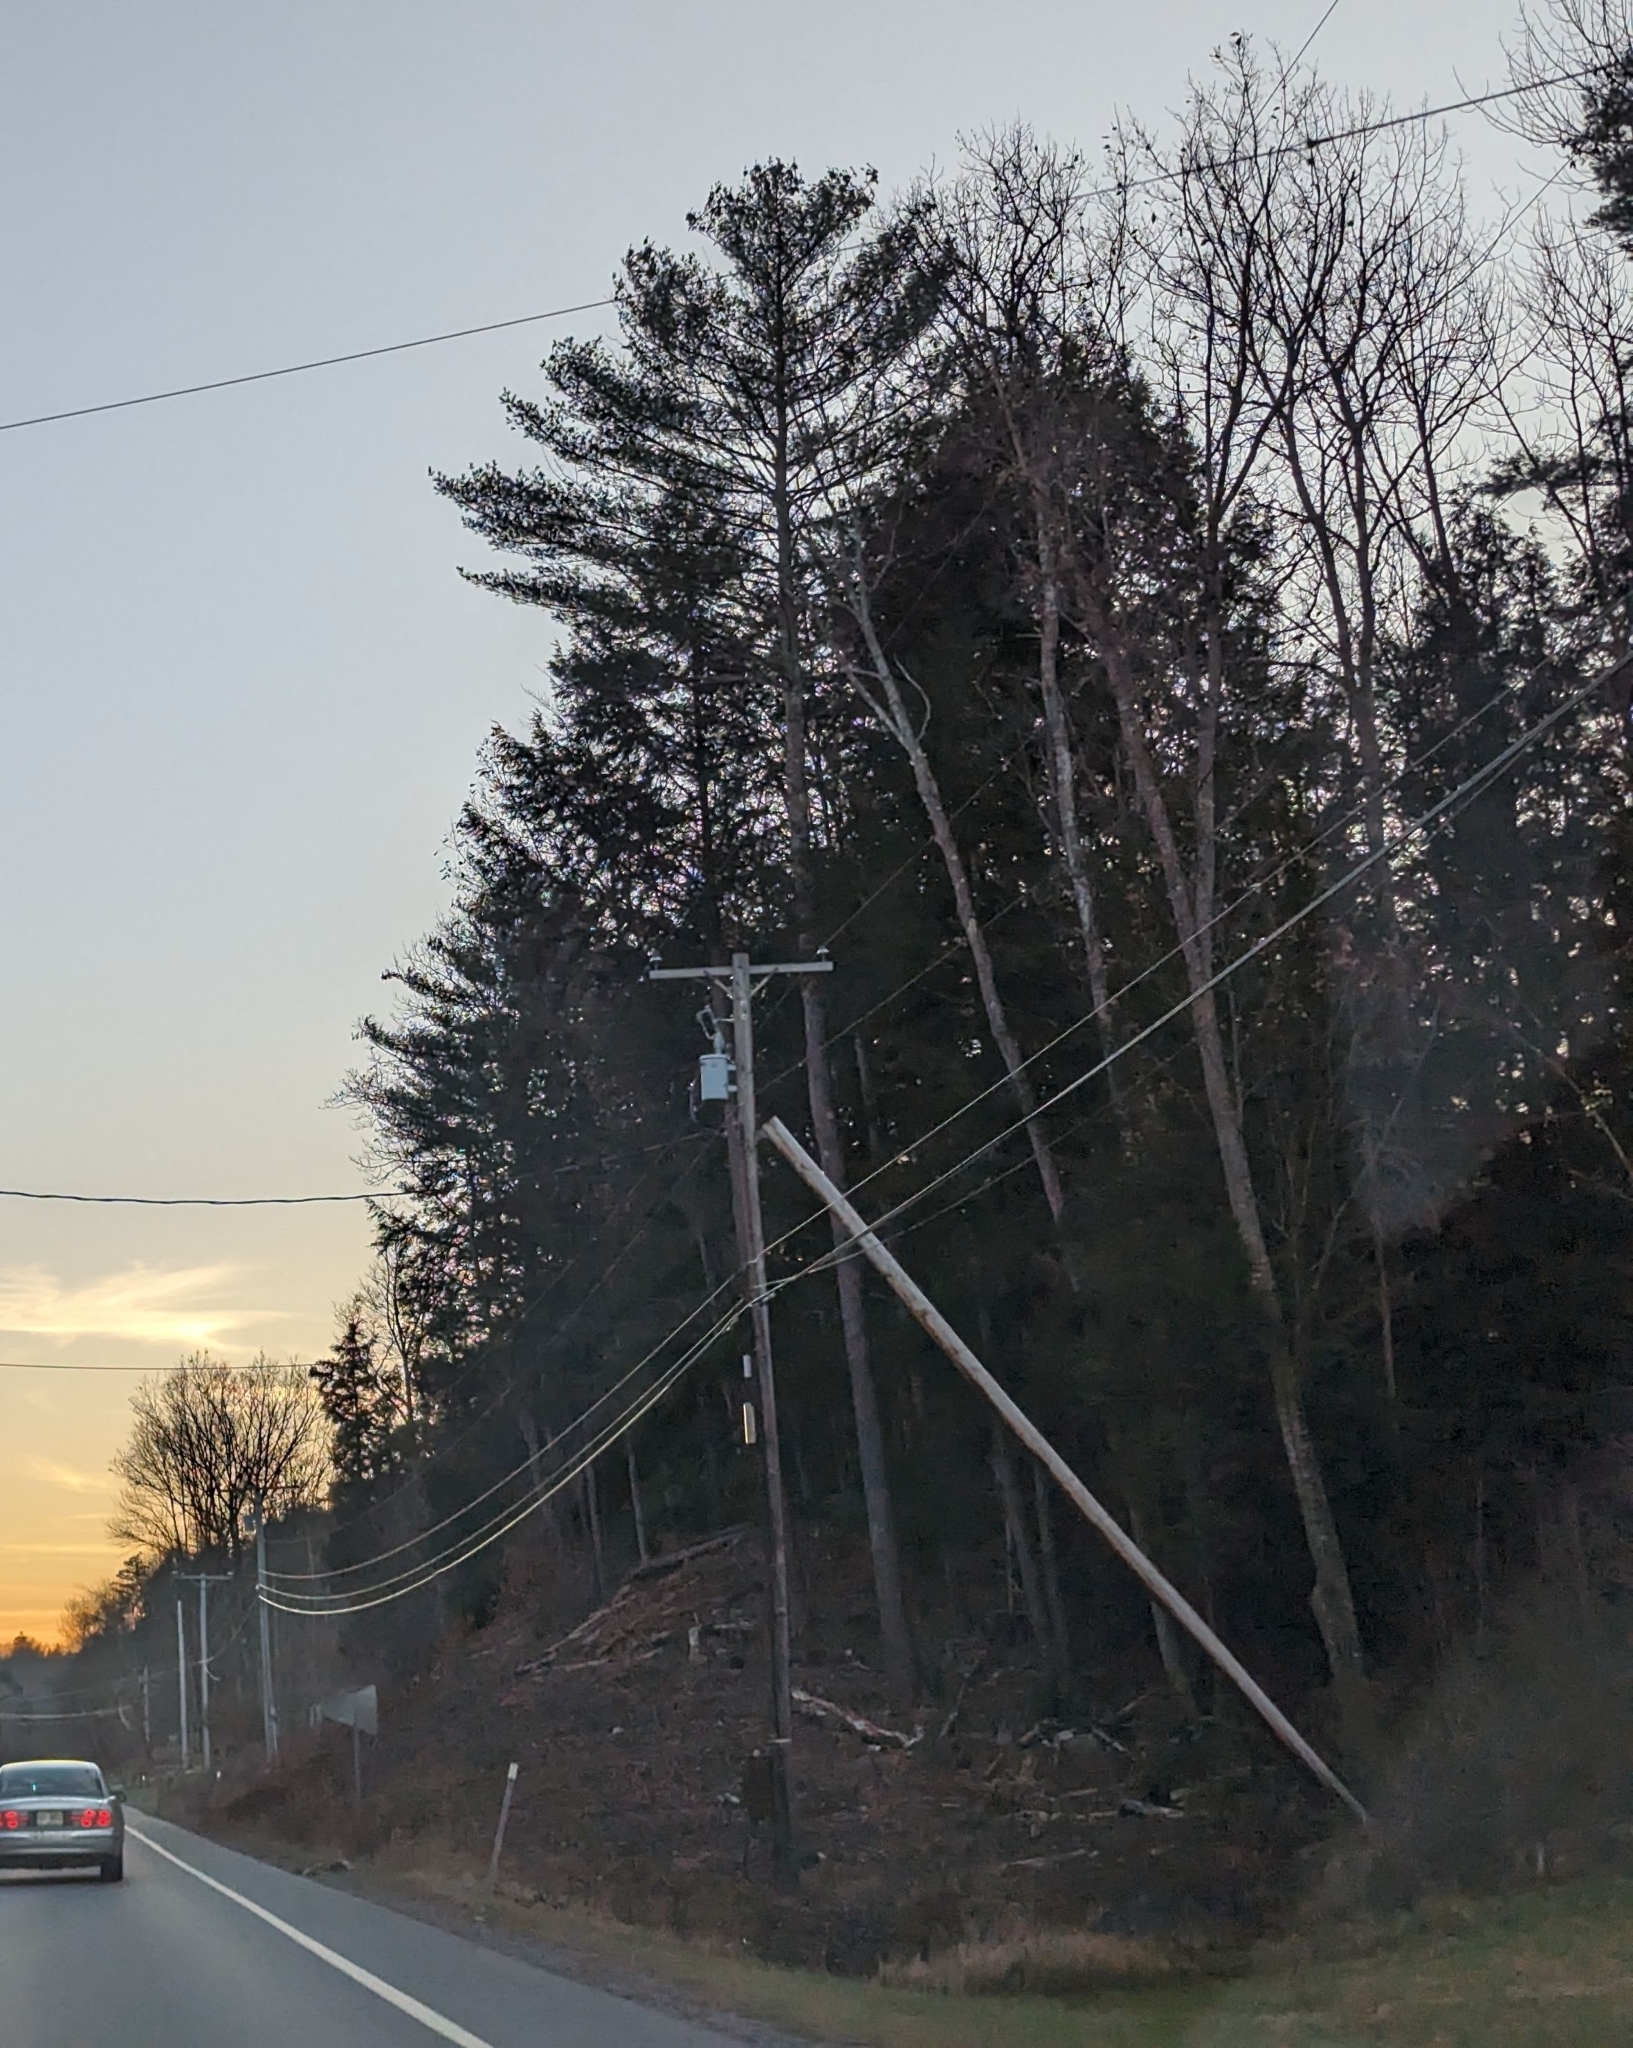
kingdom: Plantae
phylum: Tracheophyta
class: Pinopsida
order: Pinales
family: Pinaceae
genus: Pinus
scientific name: Pinus strobus
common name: Weymouth pine
